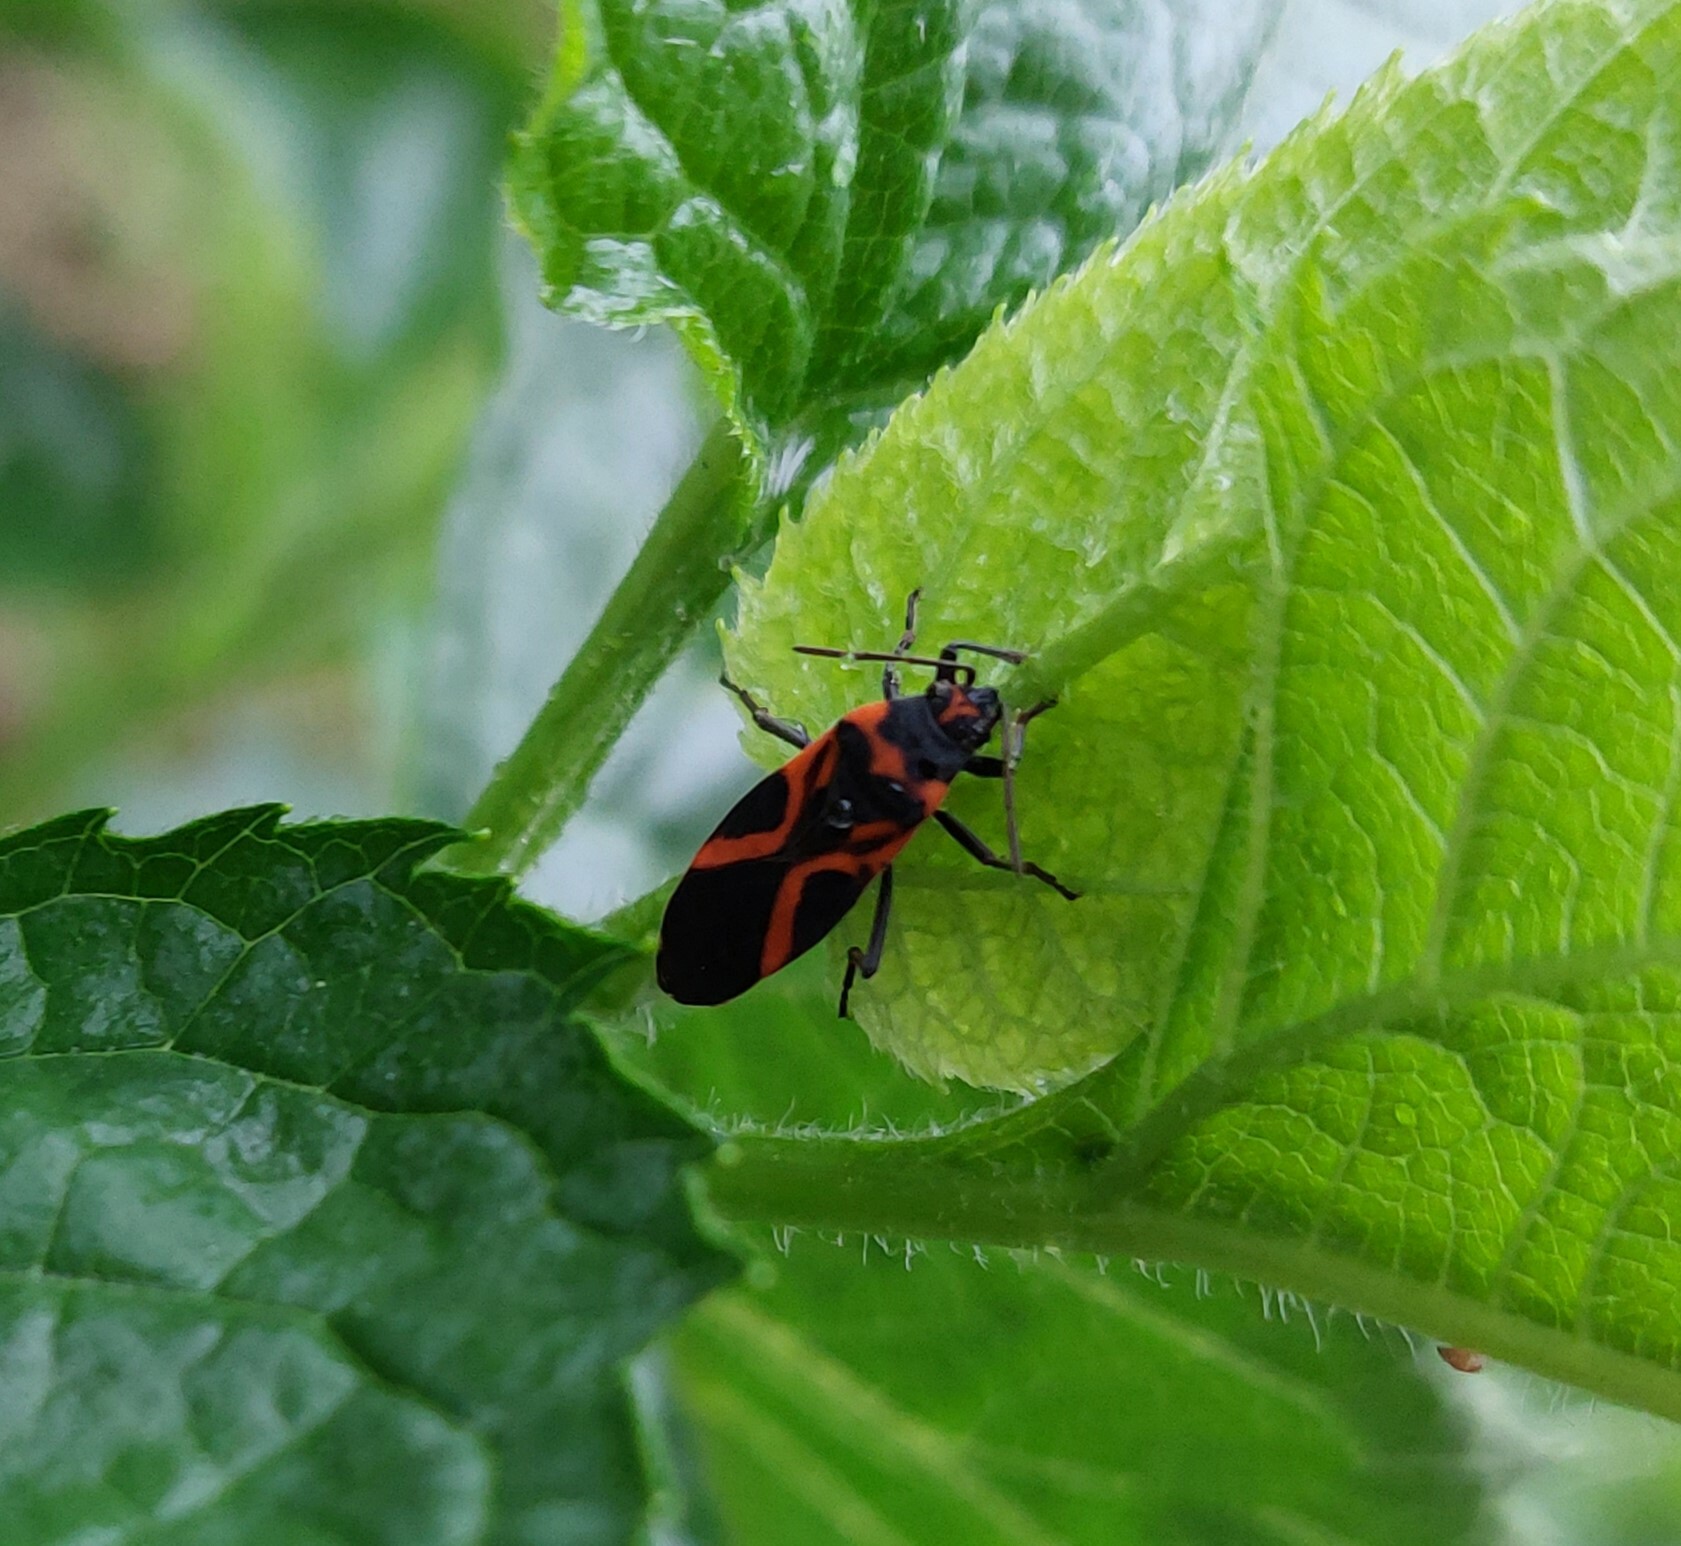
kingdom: Animalia
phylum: Arthropoda
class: Insecta
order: Hemiptera
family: Lygaeidae
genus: Lygaeus
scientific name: Lygaeus turcicus
